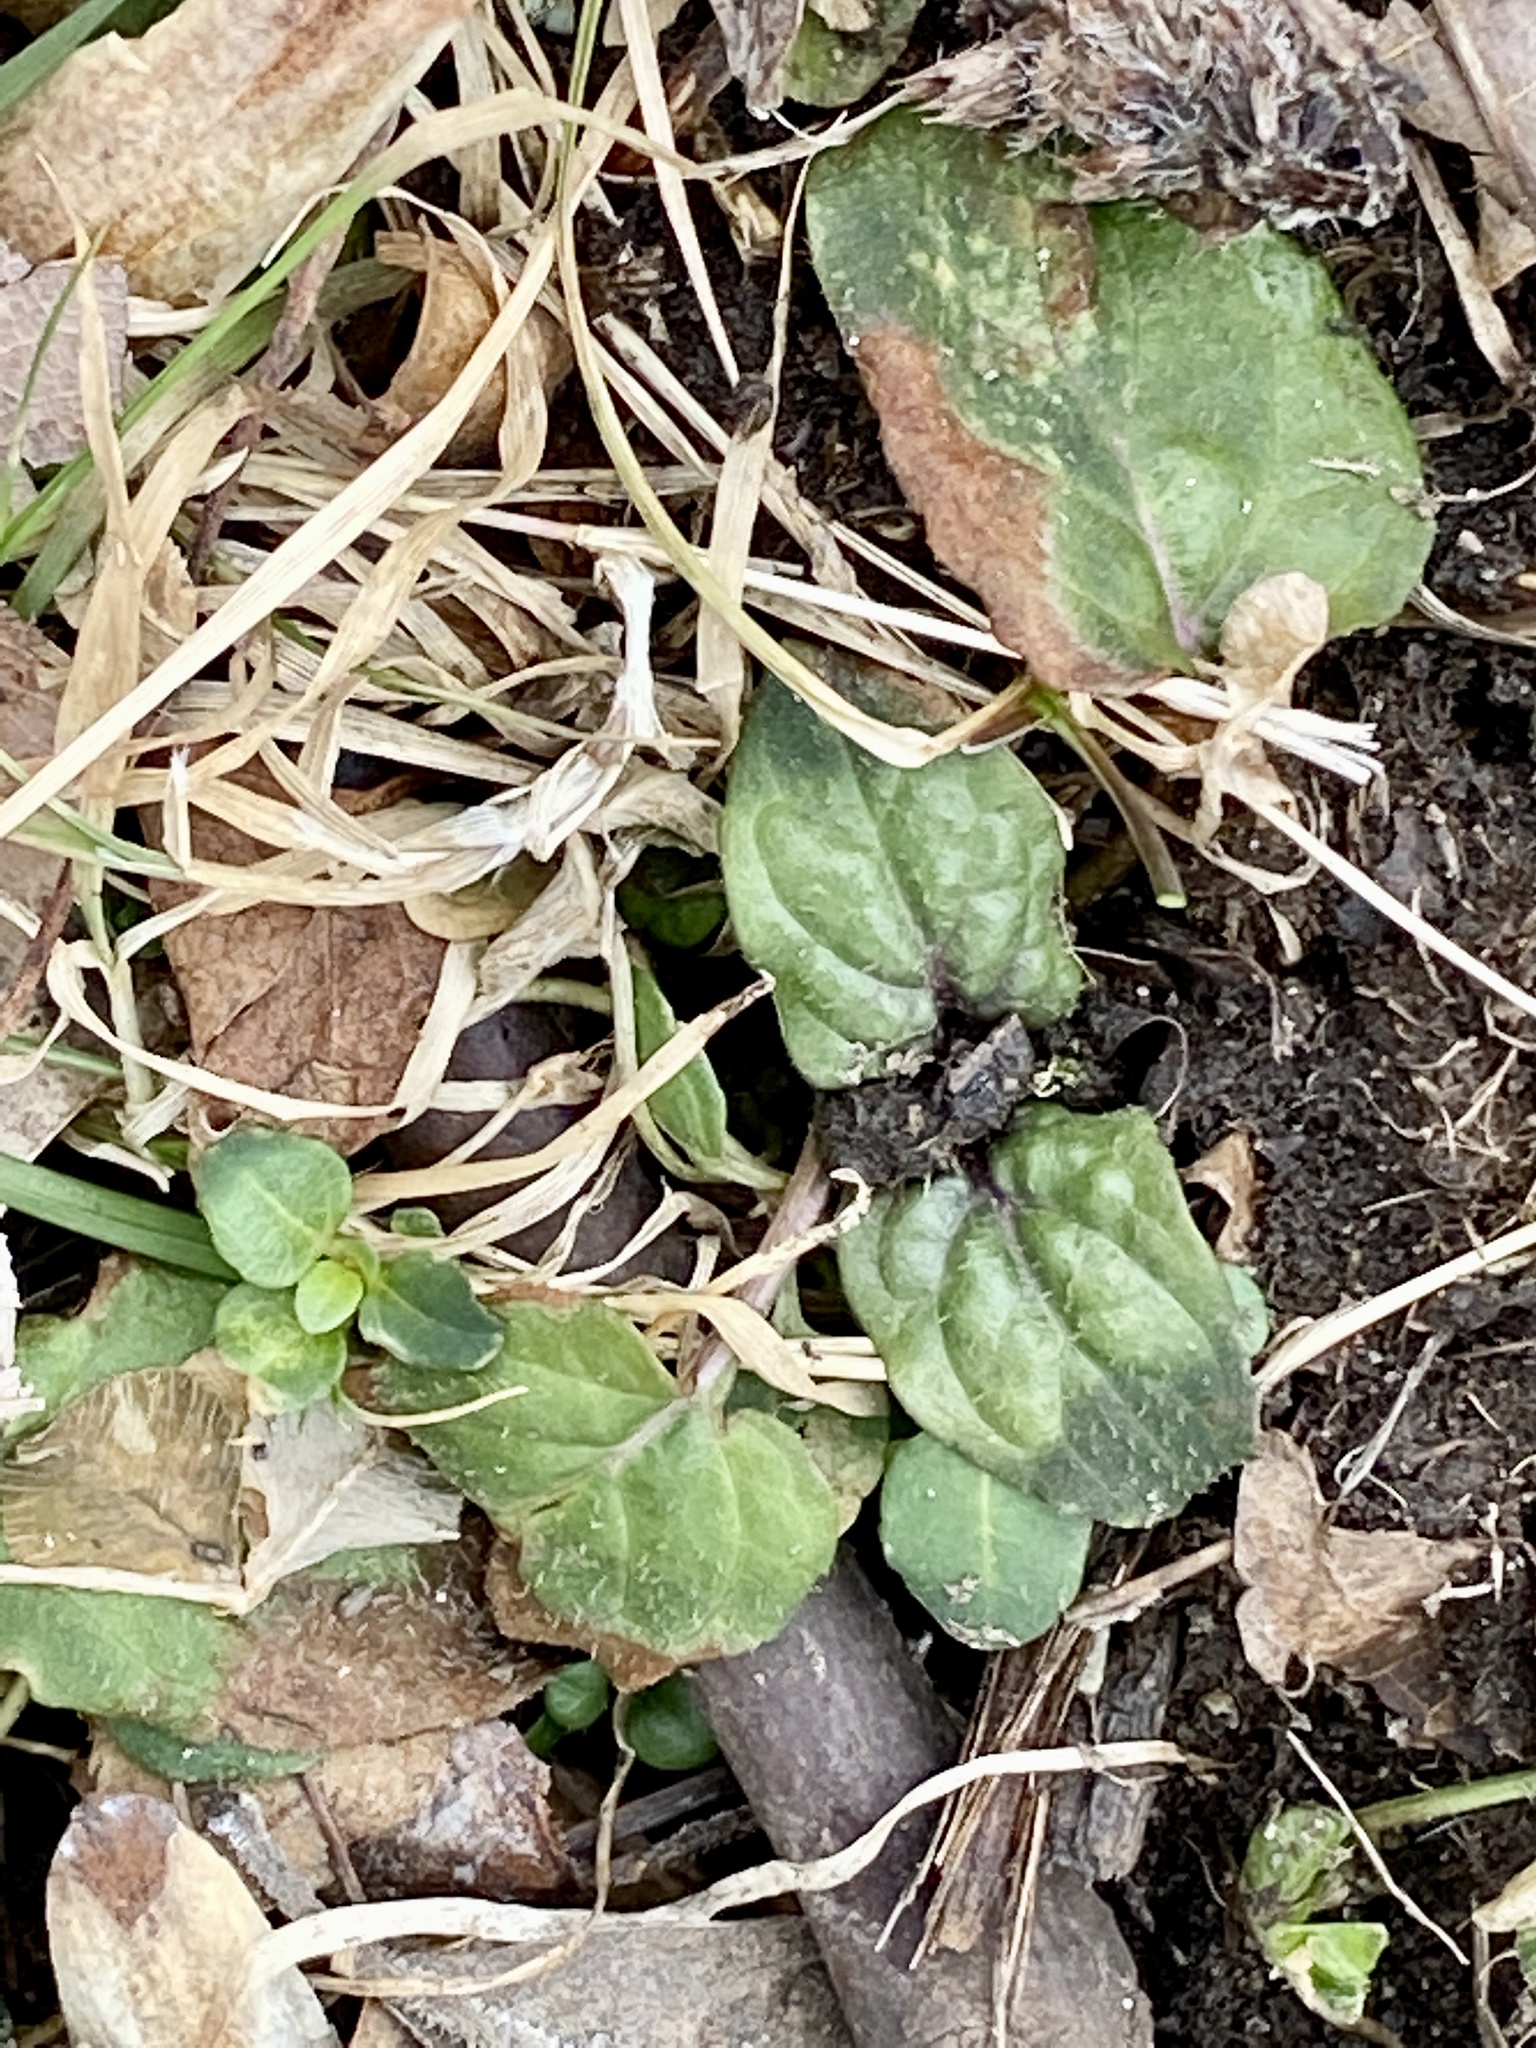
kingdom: Plantae
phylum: Tracheophyta
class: Magnoliopsida
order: Lamiales
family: Lamiaceae
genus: Prunella
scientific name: Prunella vulgaris
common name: Heal-all
